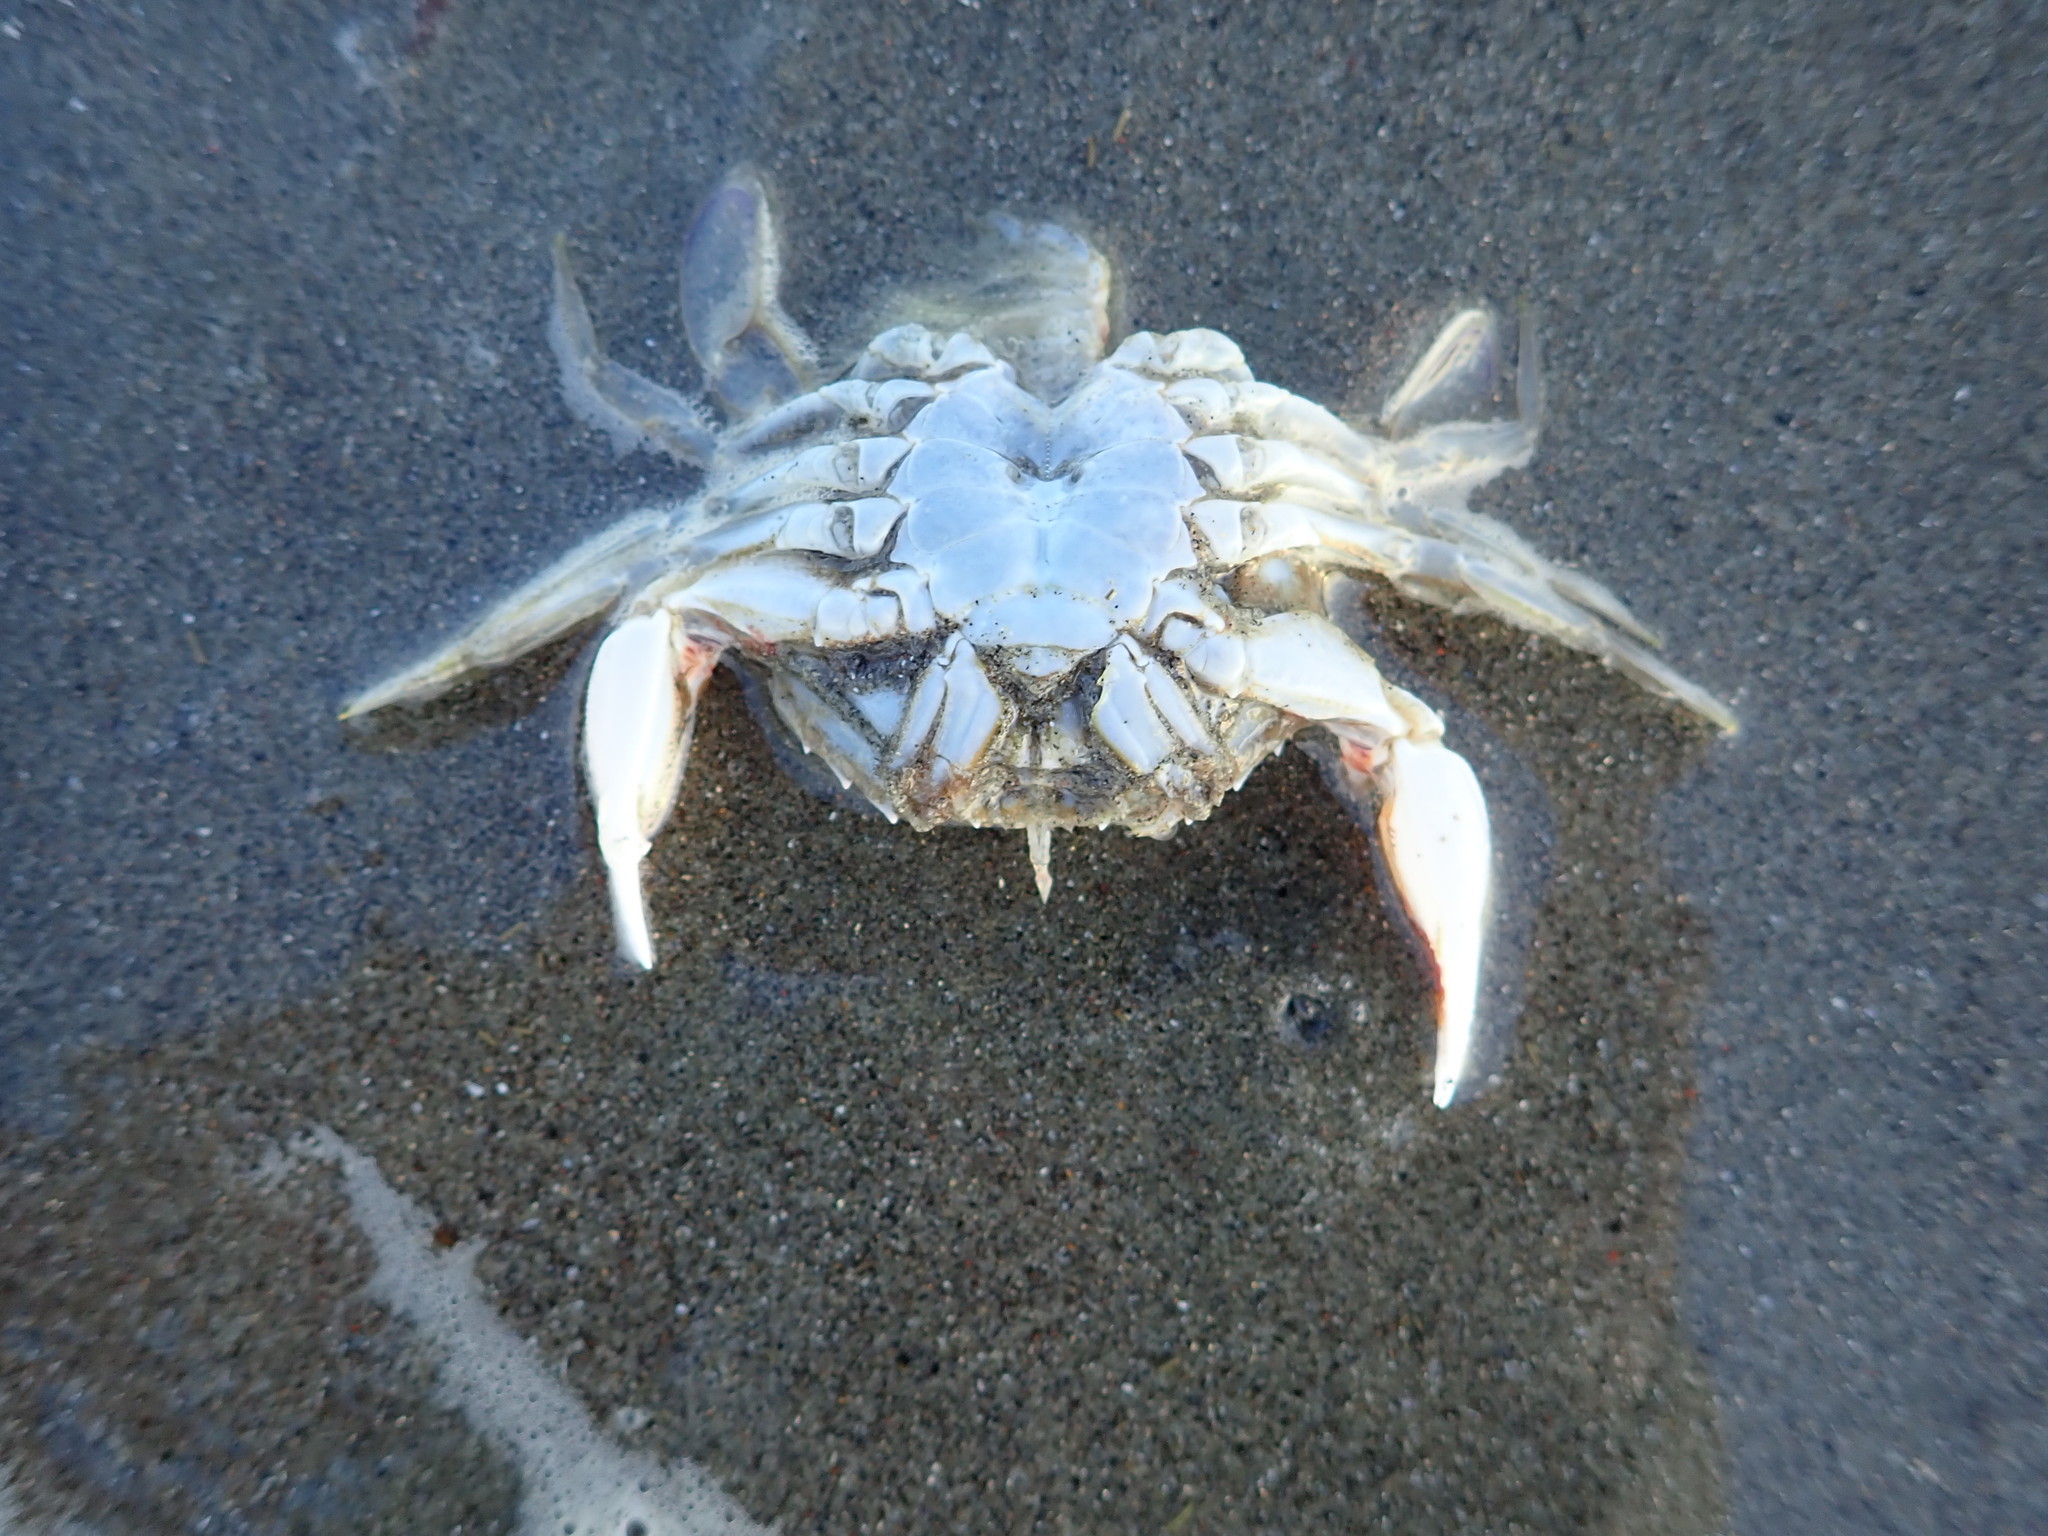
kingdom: Animalia
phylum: Arthropoda
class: Malacostraca
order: Decapoda
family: Ovalipidae
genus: Ovalipes
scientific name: Ovalipes catharus
